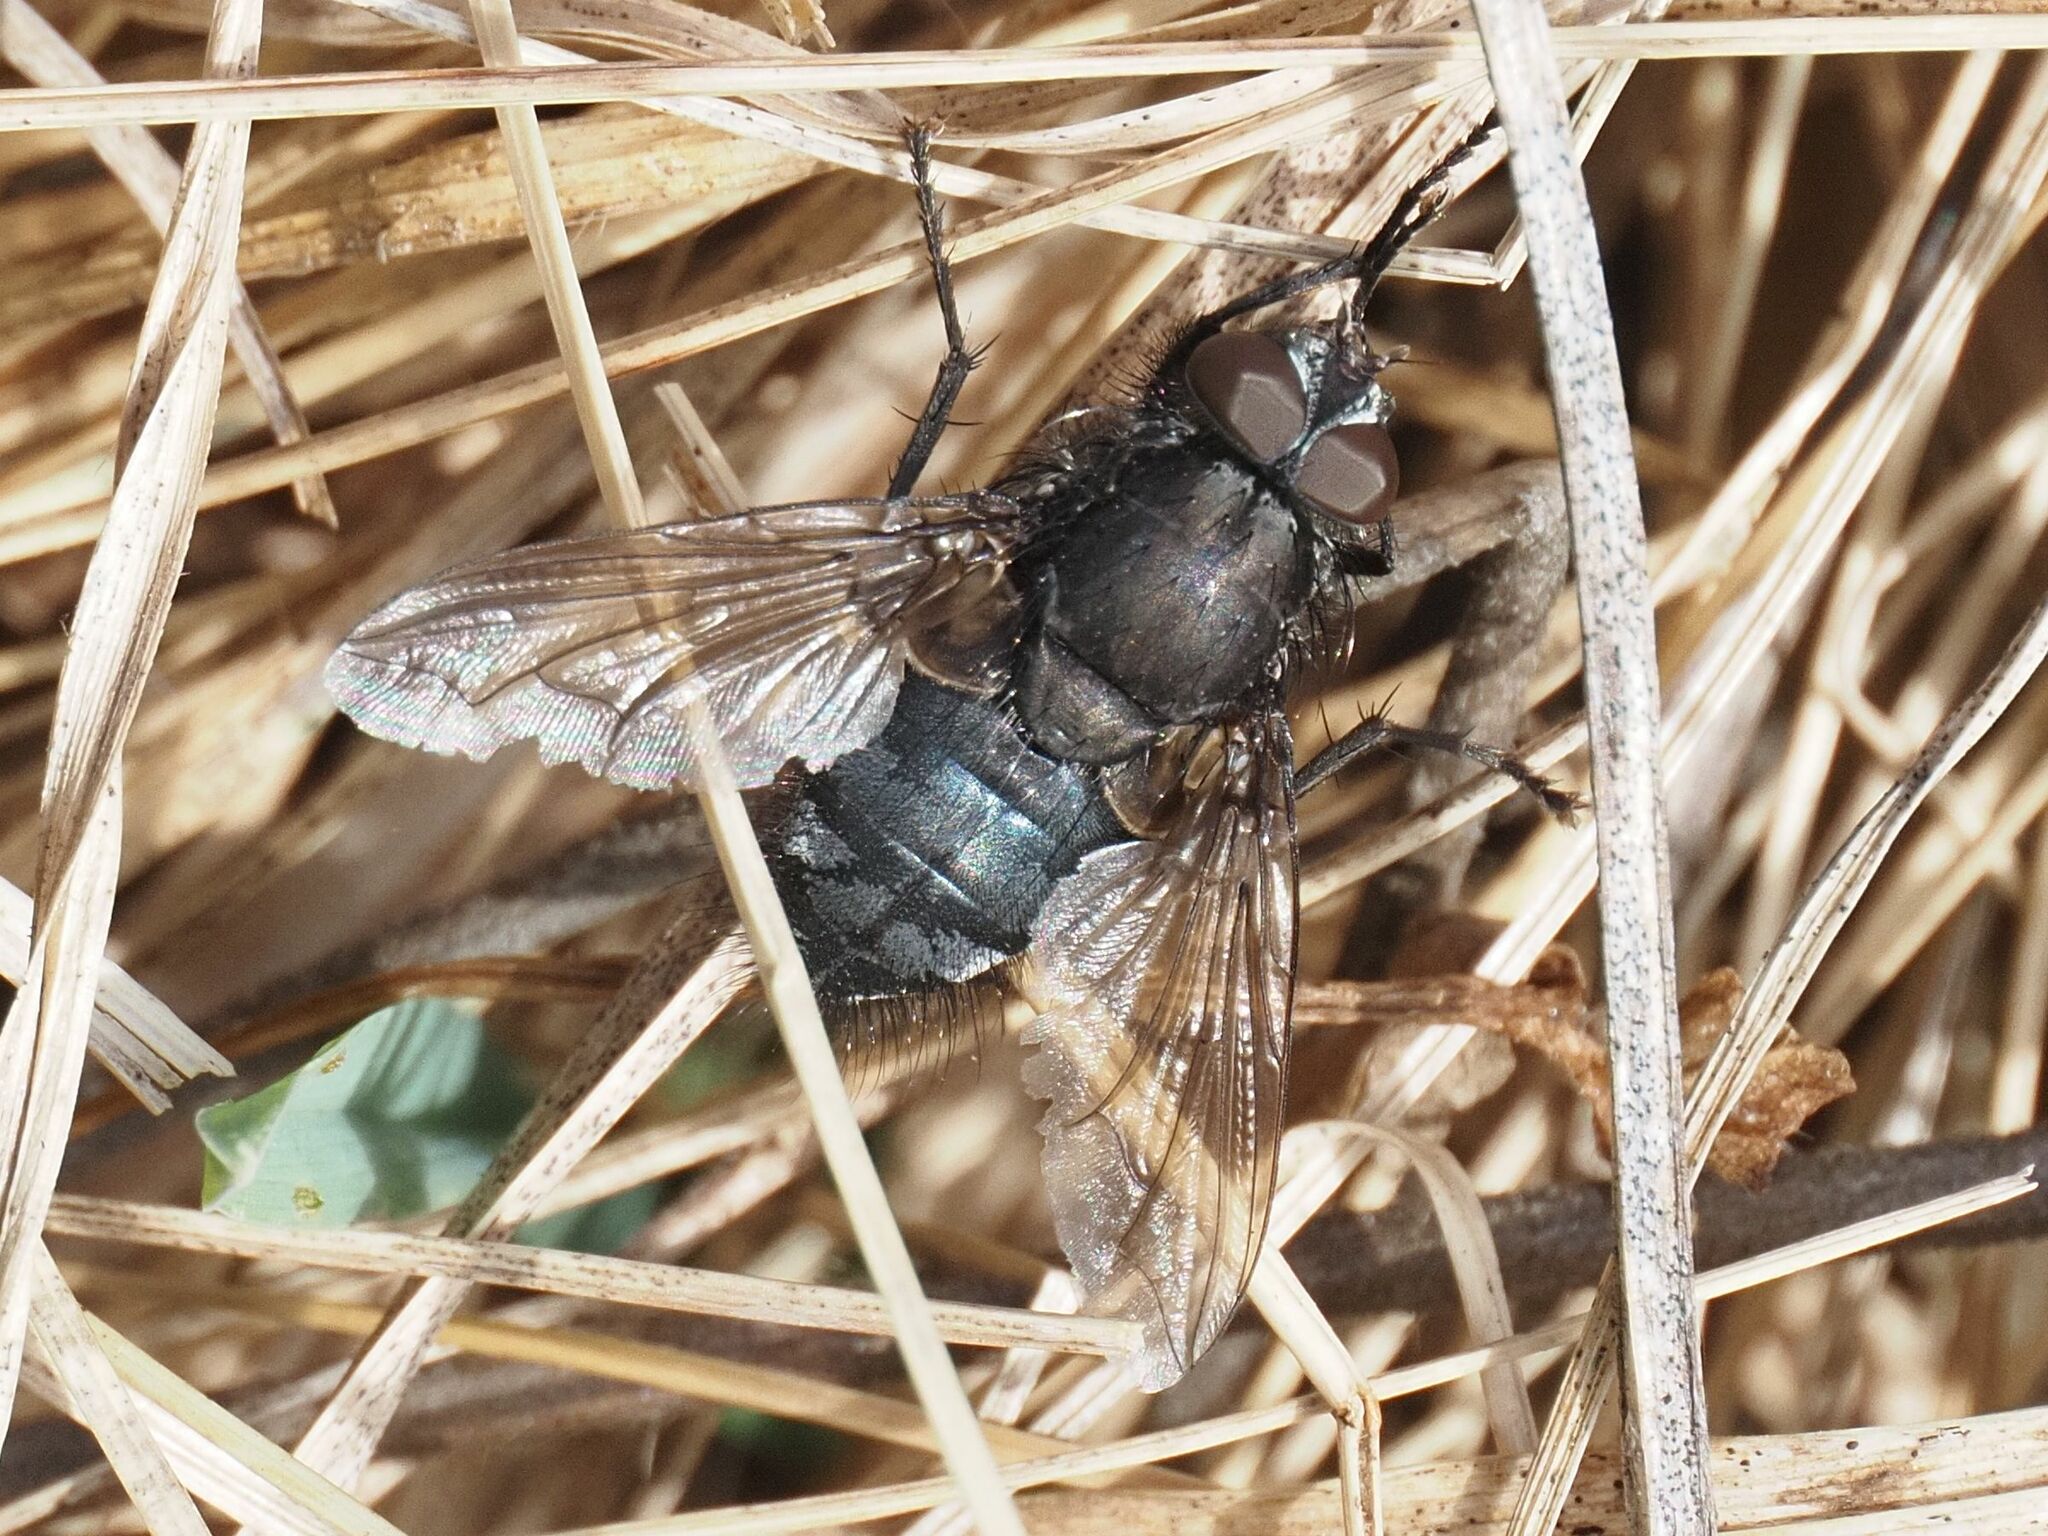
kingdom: Animalia
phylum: Arthropoda
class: Insecta
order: Diptera
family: Polleniidae
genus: Pollenia
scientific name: Pollenia vagabunda
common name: Vagabund cluster fly
